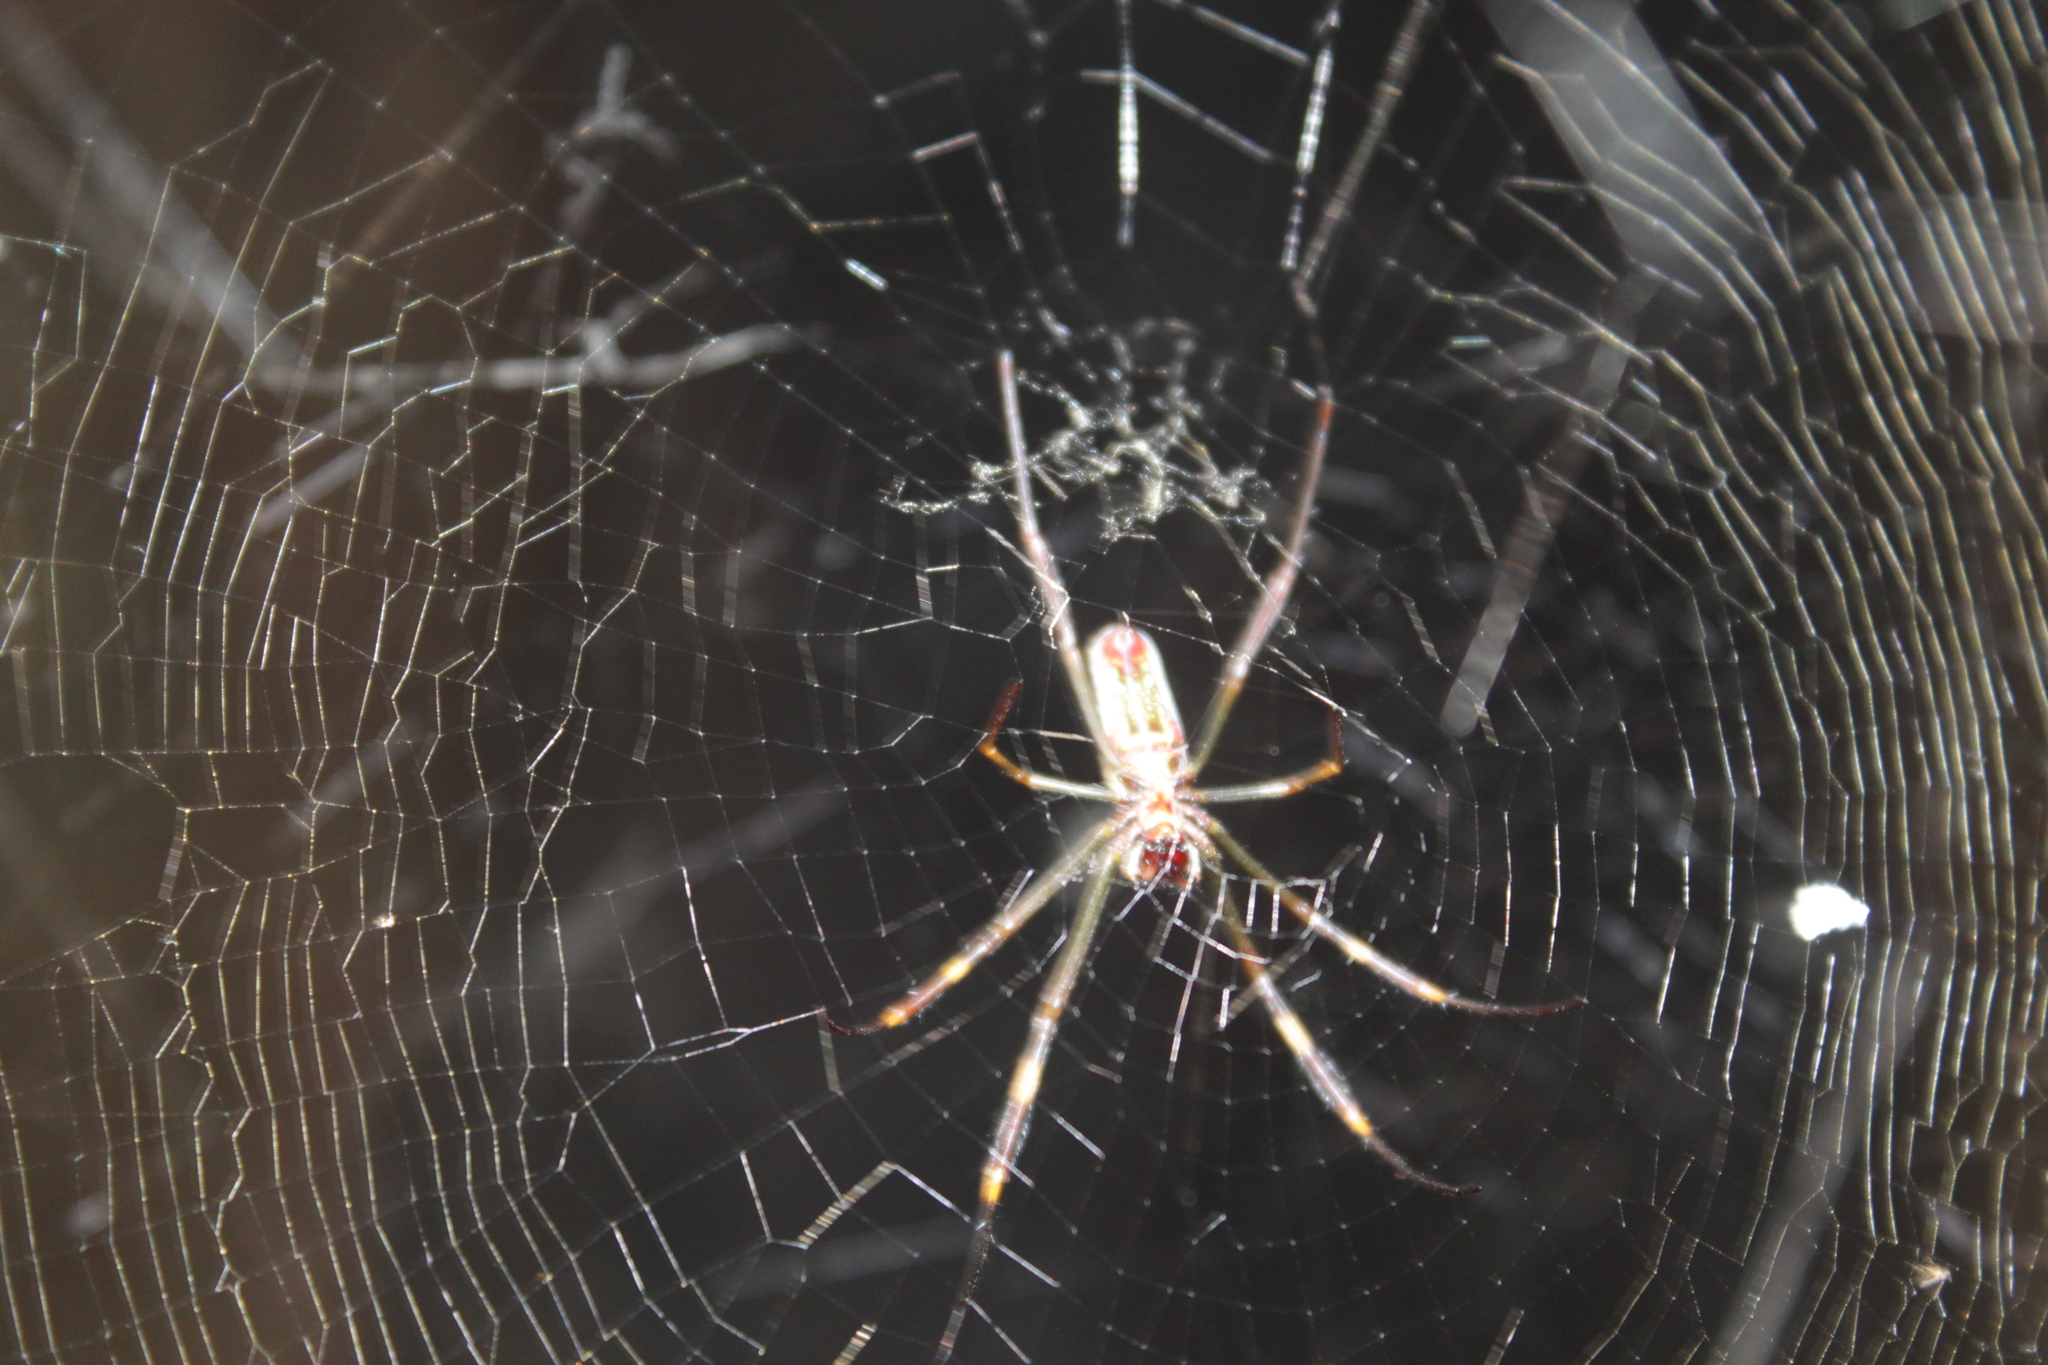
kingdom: Animalia
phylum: Arthropoda
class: Arachnida
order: Araneae
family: Araneidae
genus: Trichonephila
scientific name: Trichonephila clavipes
